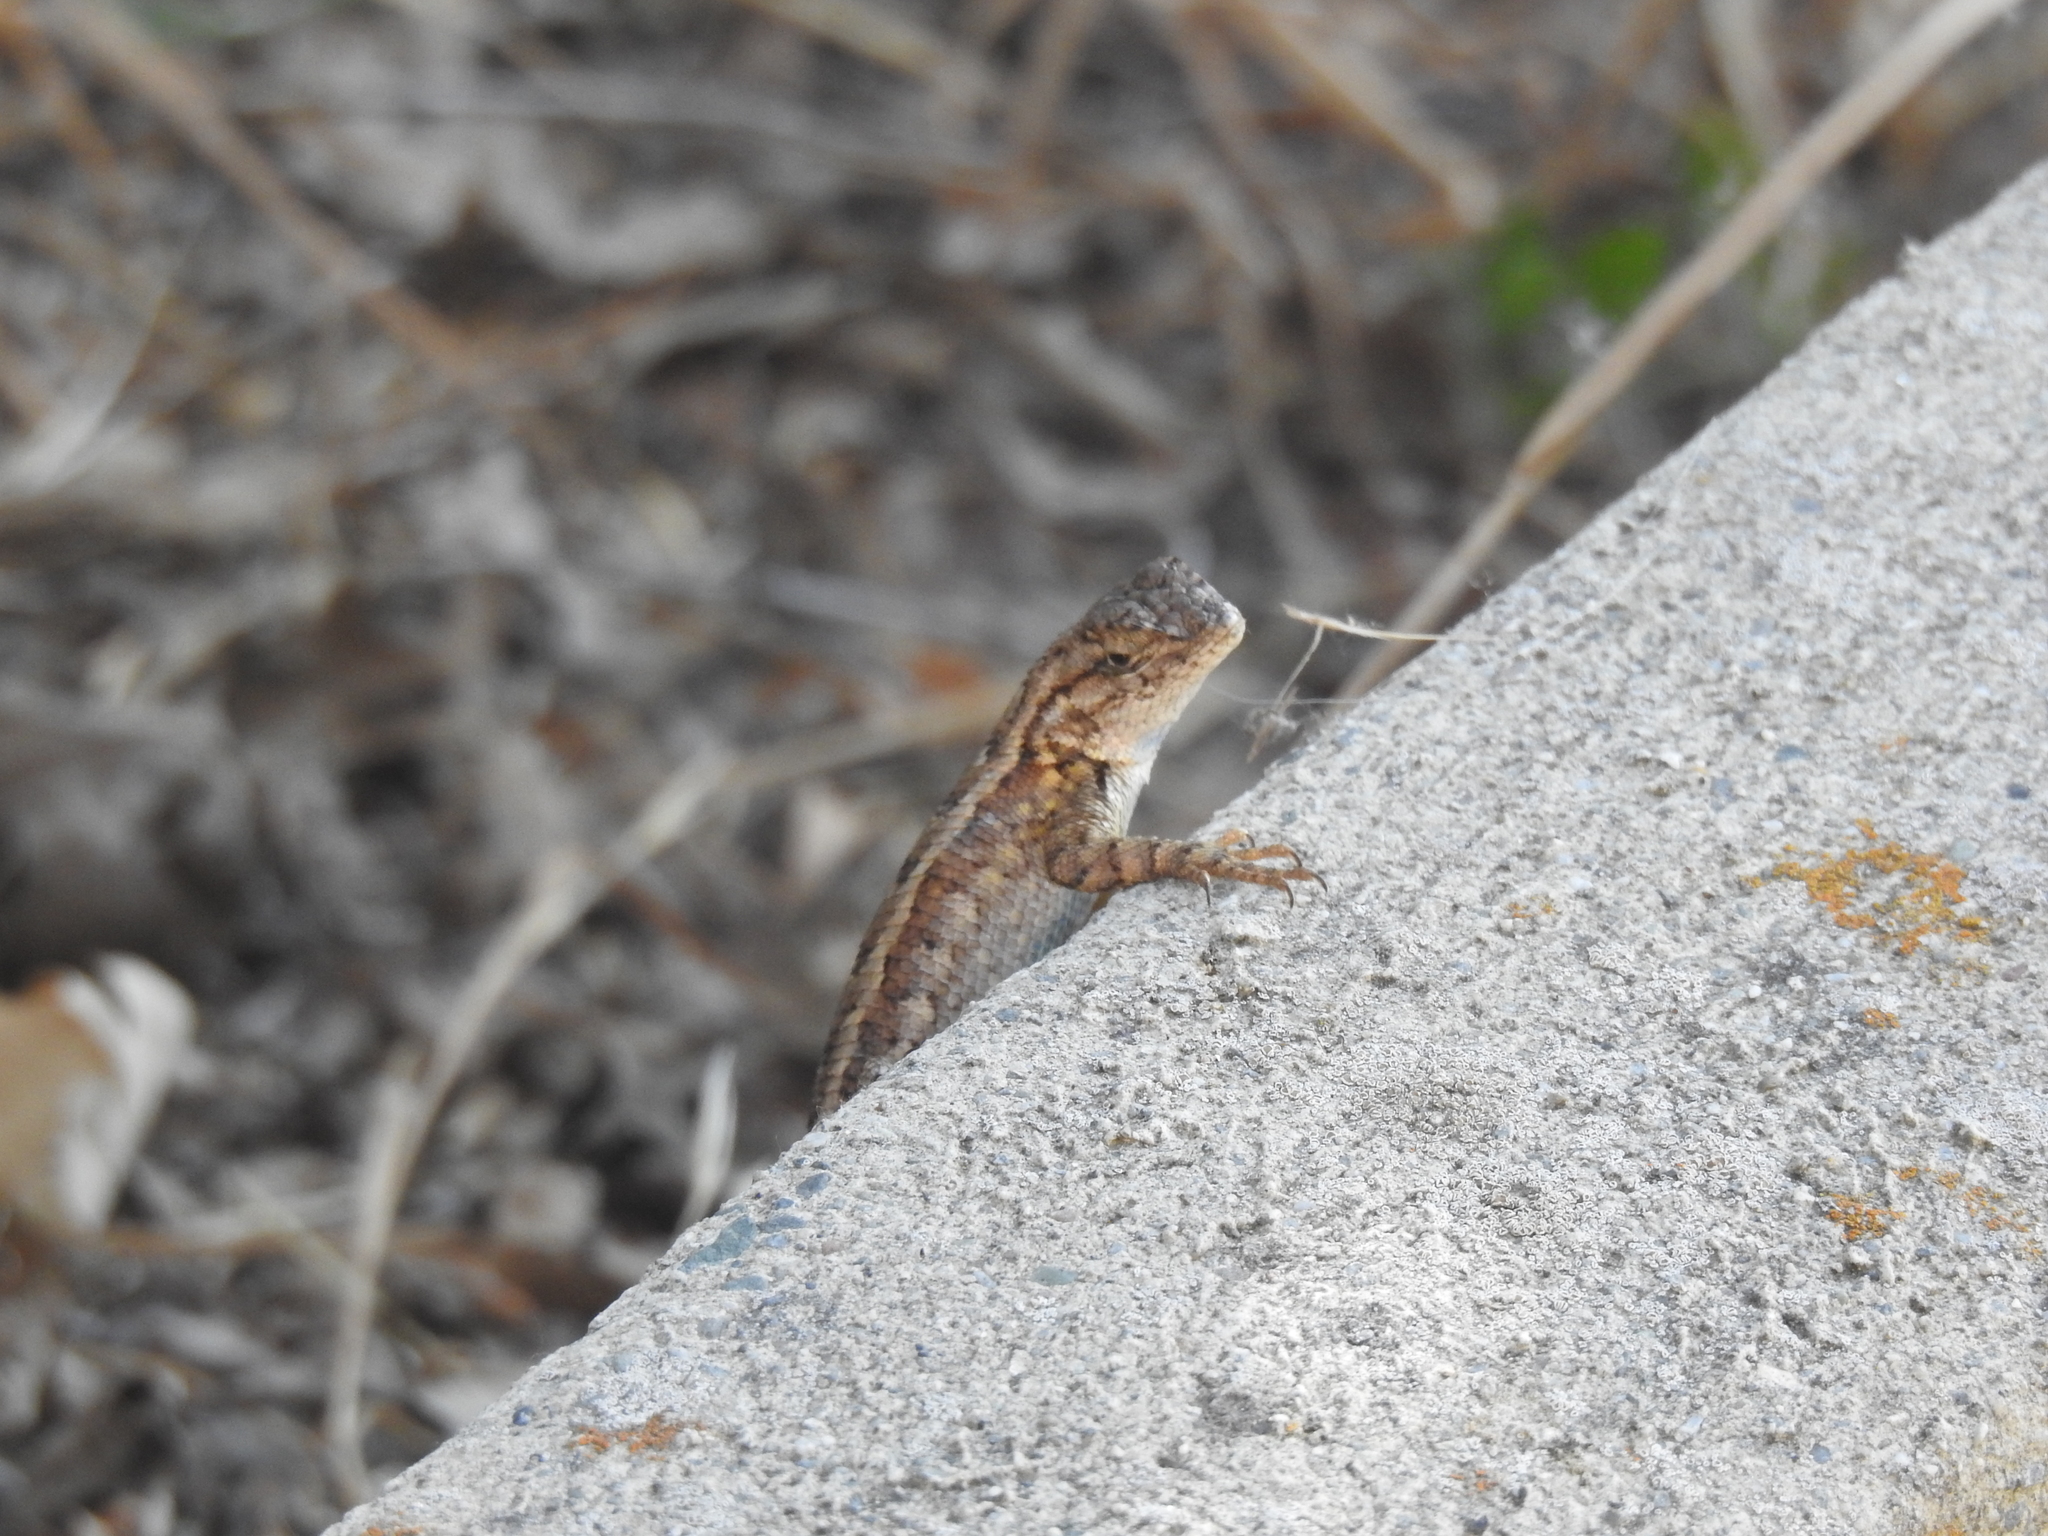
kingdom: Animalia
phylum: Chordata
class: Squamata
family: Phrynosomatidae
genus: Sceloporus
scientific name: Sceloporus occidentalis
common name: Western fence lizard
